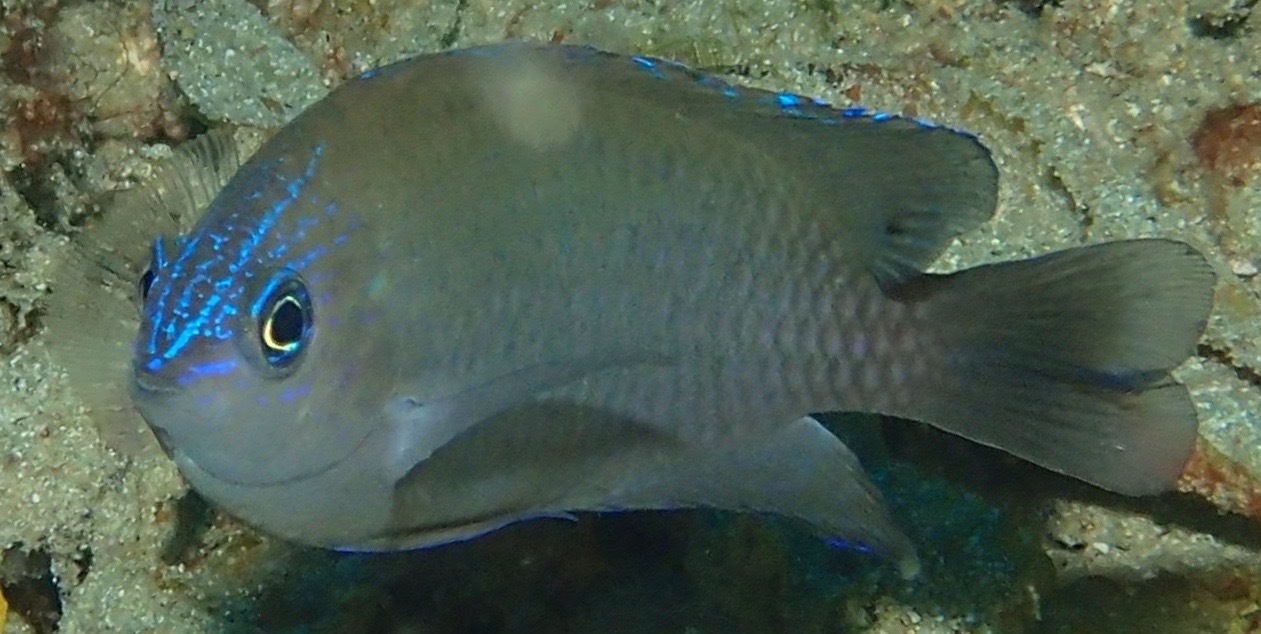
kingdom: Animalia
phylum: Chordata
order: Perciformes
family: Pomacentridae
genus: Pomacentrus
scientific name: Pomacentrus cuneatus
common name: Wedgespot damsel
